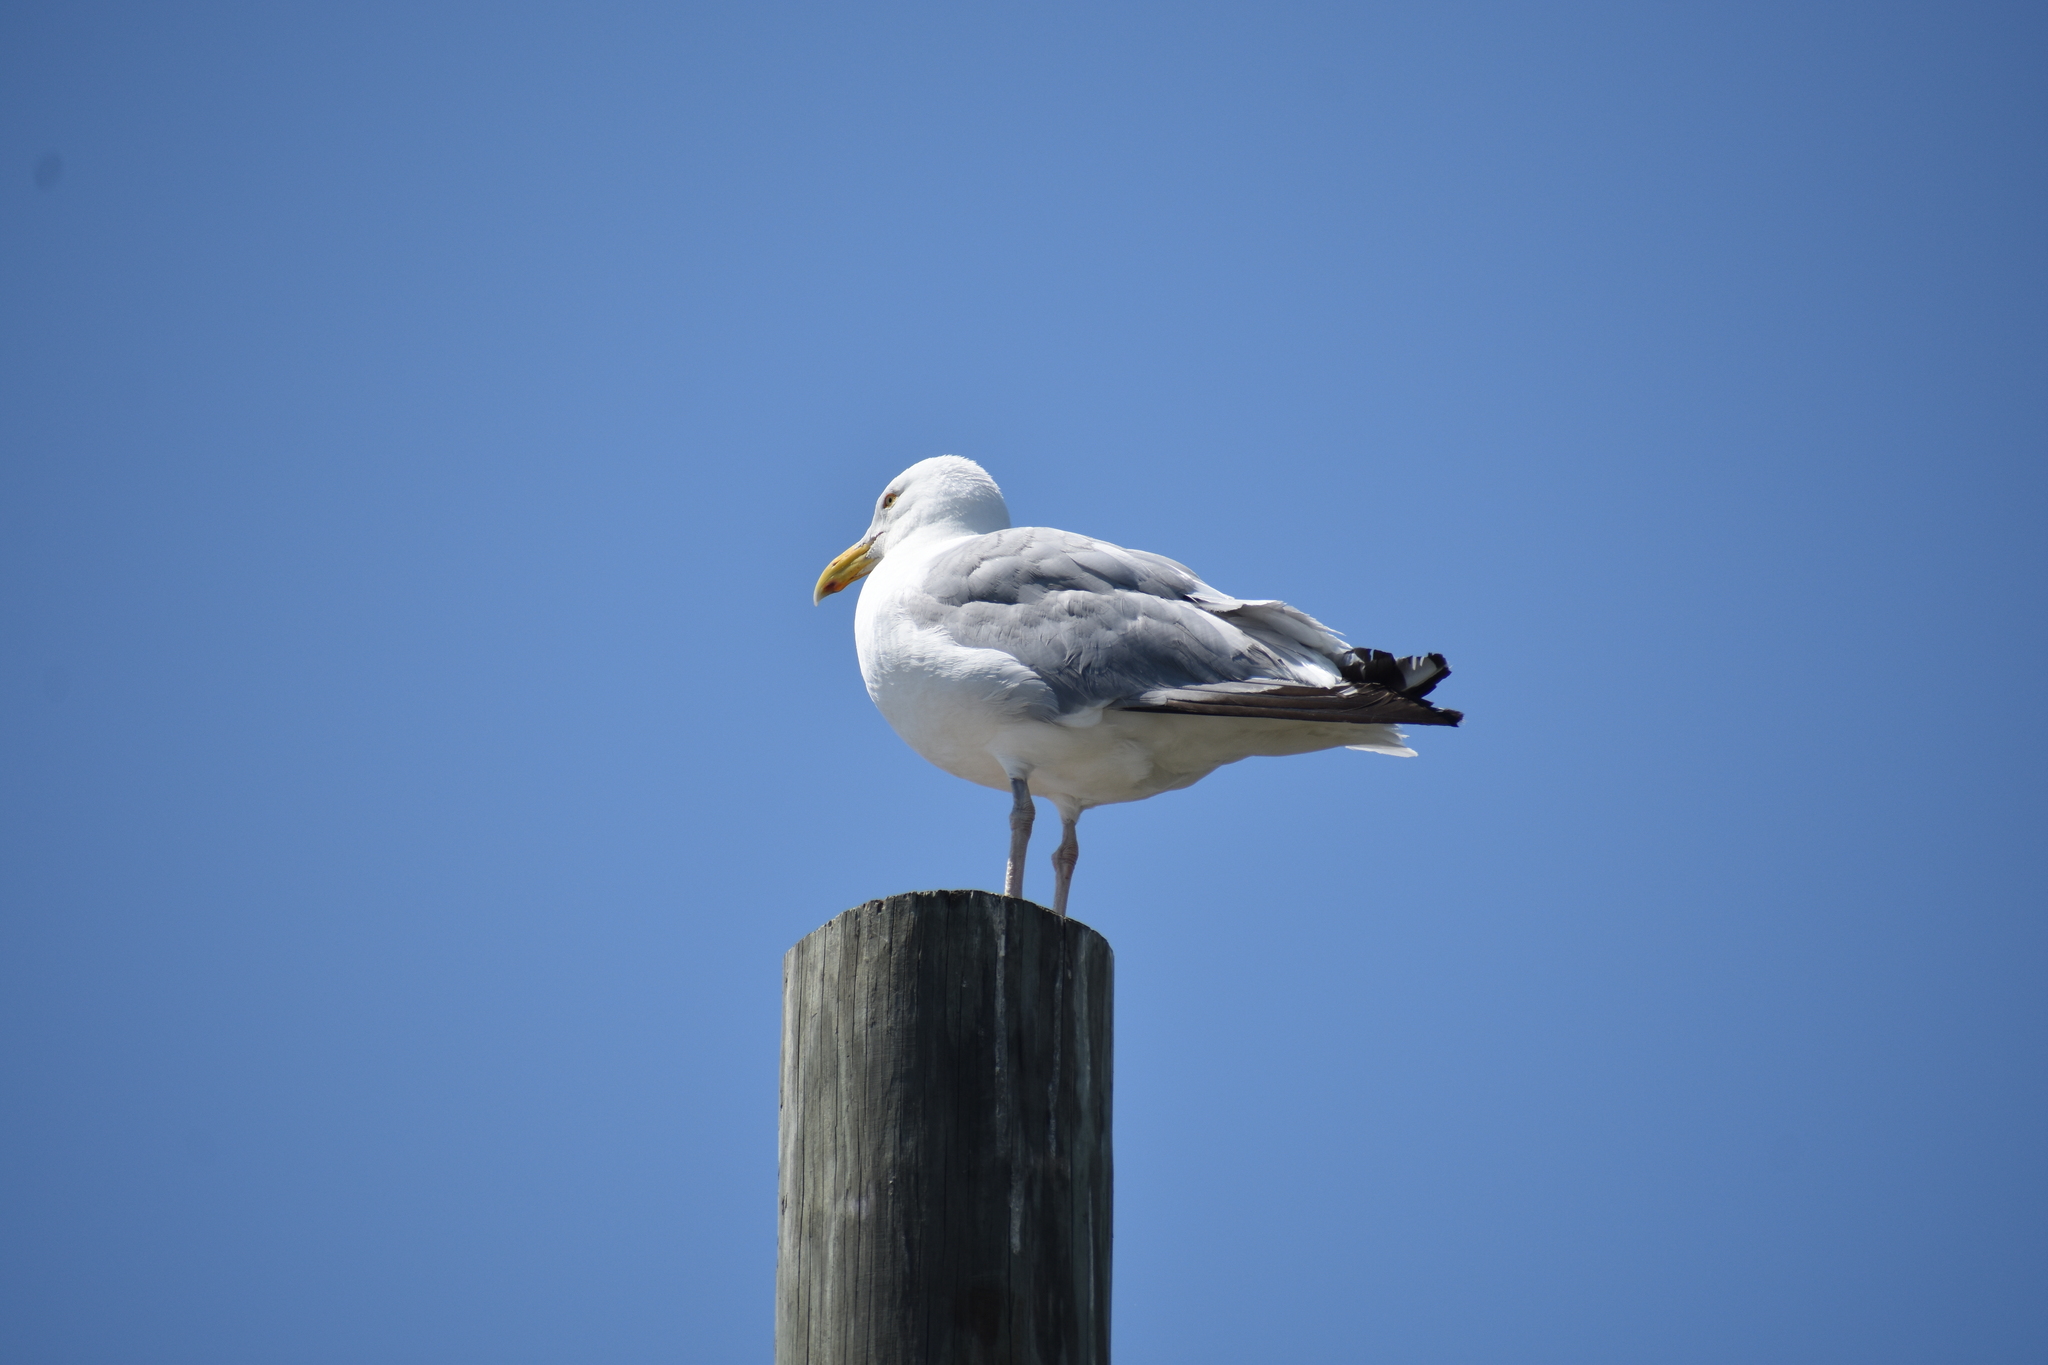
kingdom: Animalia
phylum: Chordata
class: Aves
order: Charadriiformes
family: Laridae
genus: Larus
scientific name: Larus argentatus
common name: Herring gull
